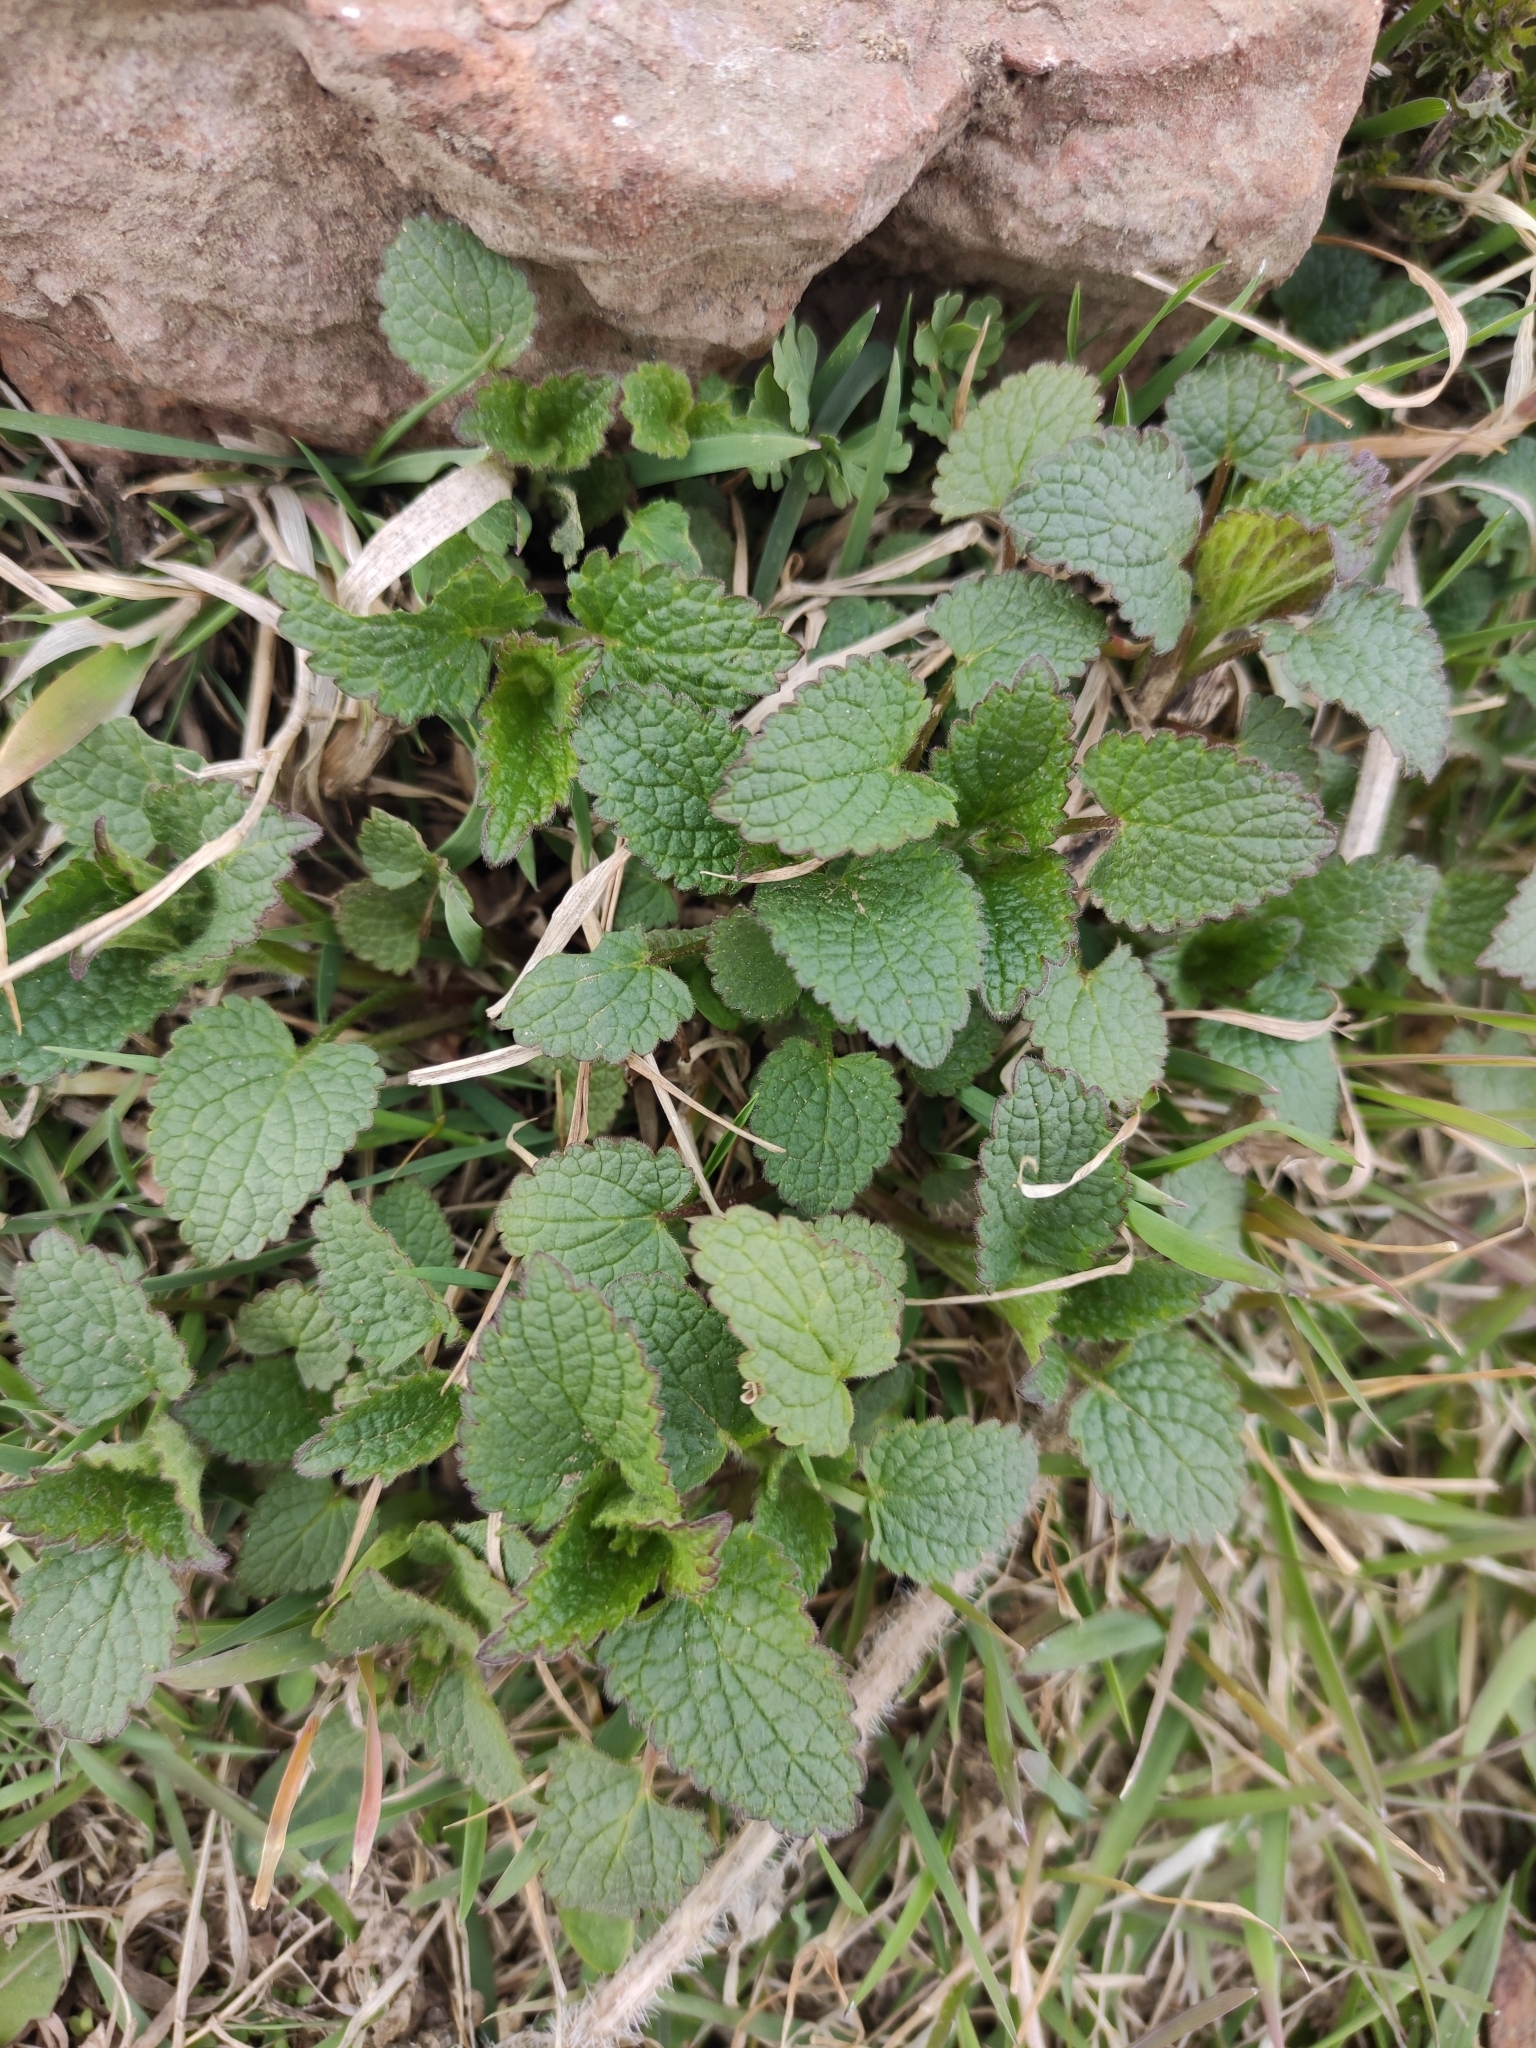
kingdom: Plantae
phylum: Tracheophyta
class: Magnoliopsida
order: Lamiales
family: Lamiaceae
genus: Lamium
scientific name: Lamium album
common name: White dead-nettle
